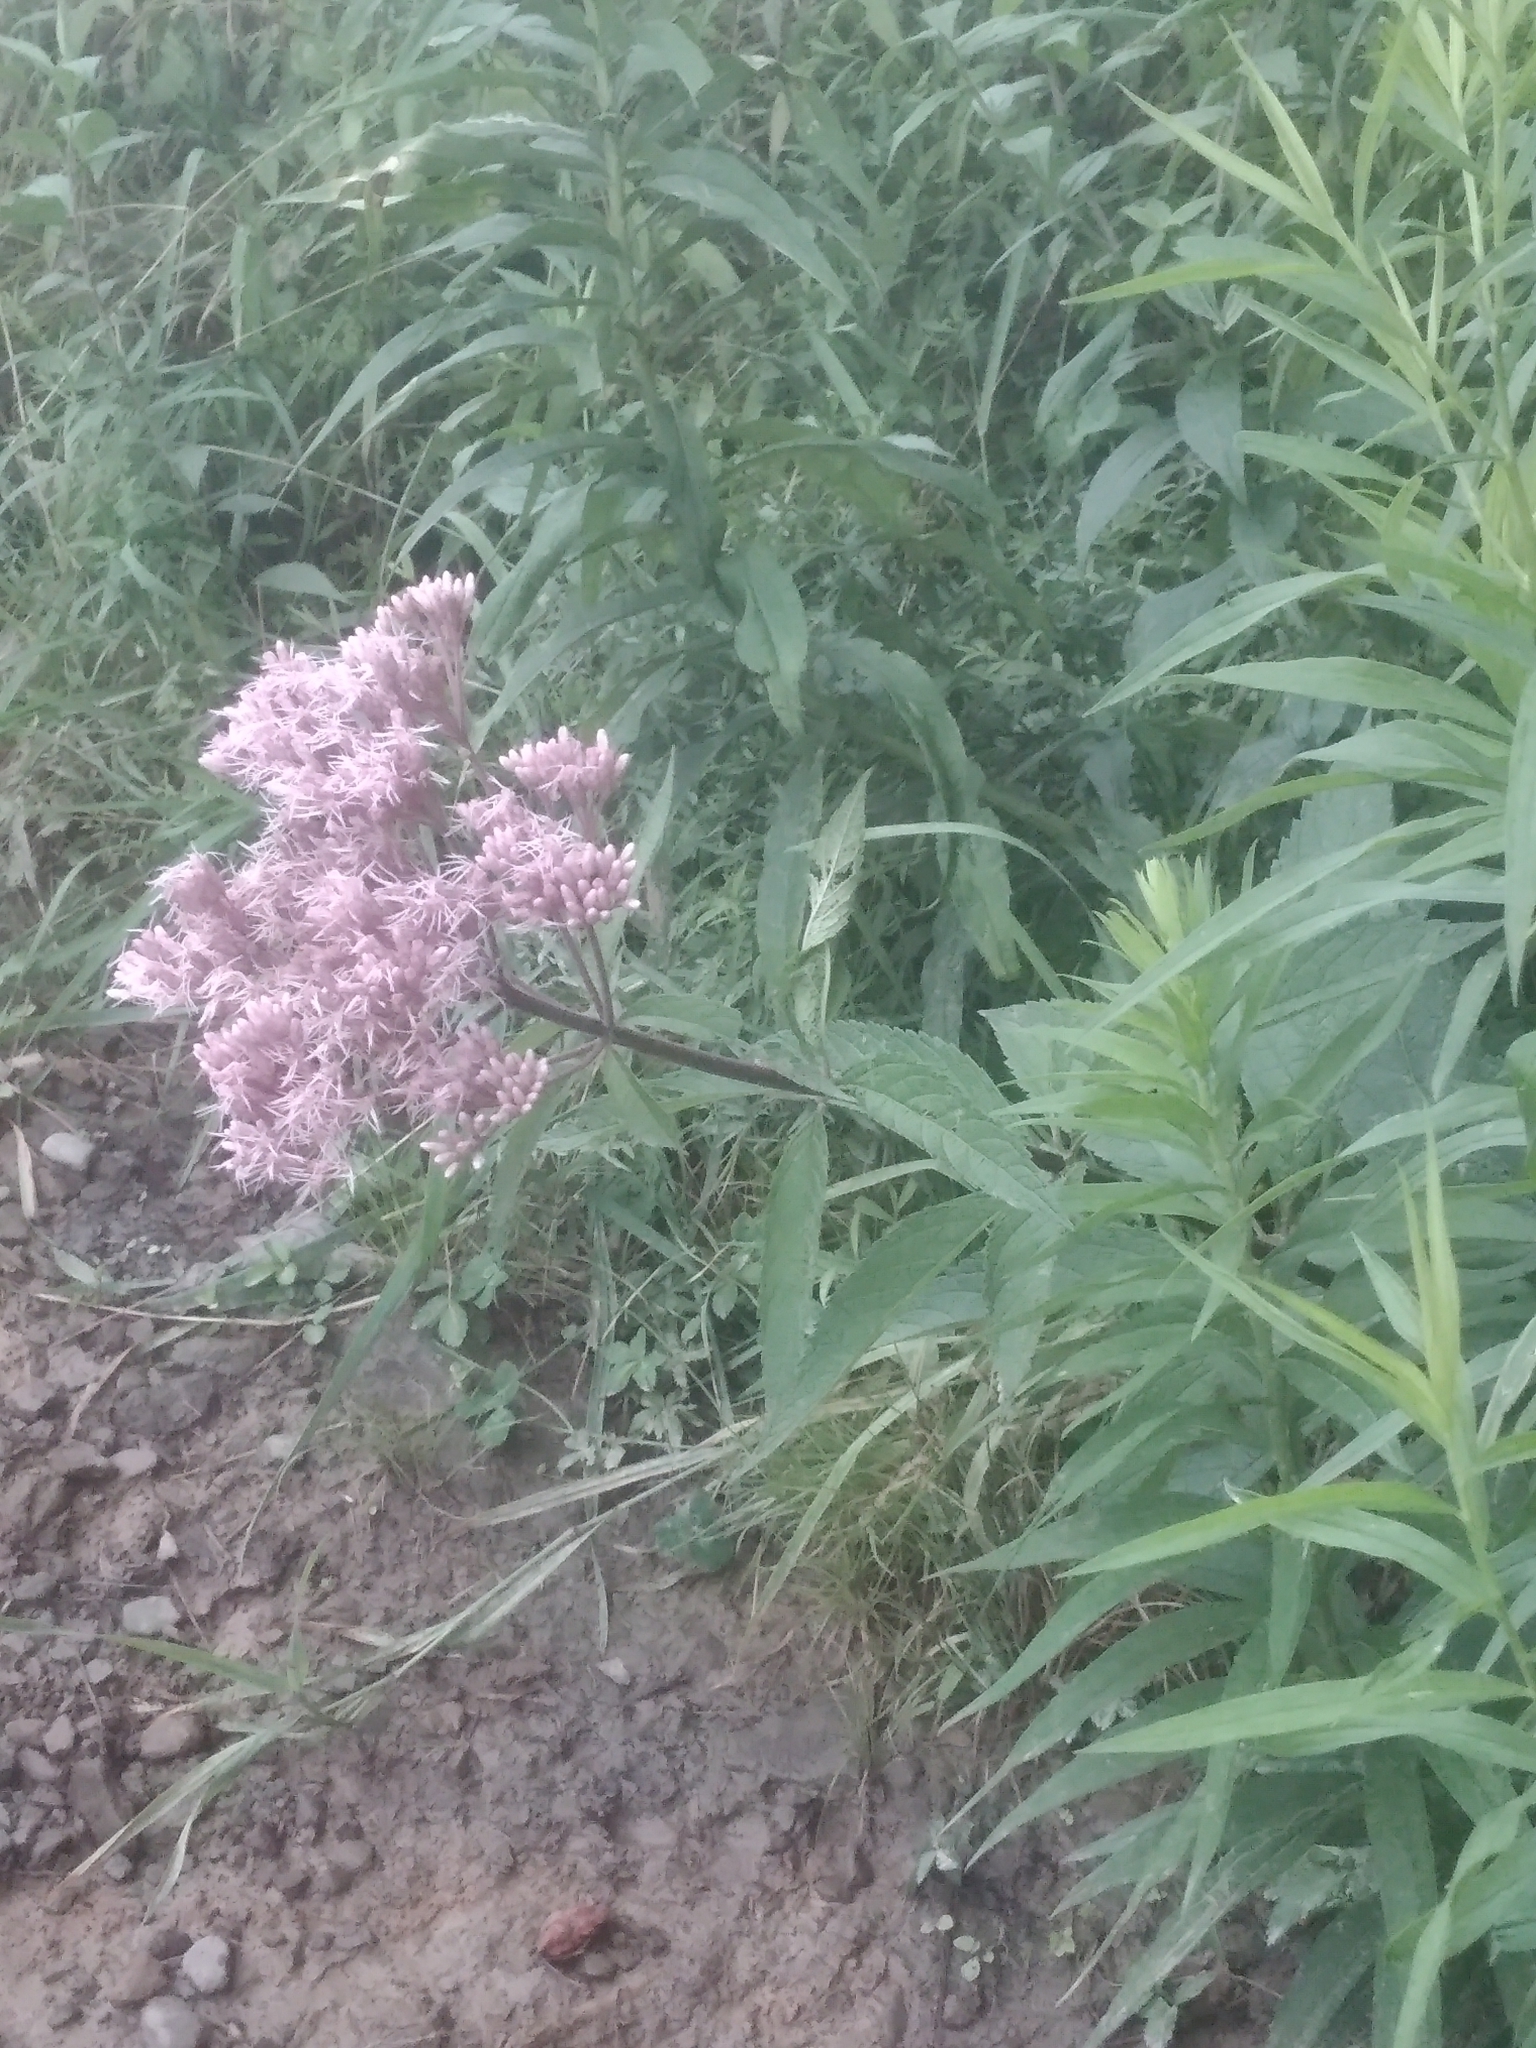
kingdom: Plantae
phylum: Tracheophyta
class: Magnoliopsida
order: Asterales
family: Asteraceae
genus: Eutrochium
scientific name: Eutrochium maculatum
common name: Spotted joe pye weed
